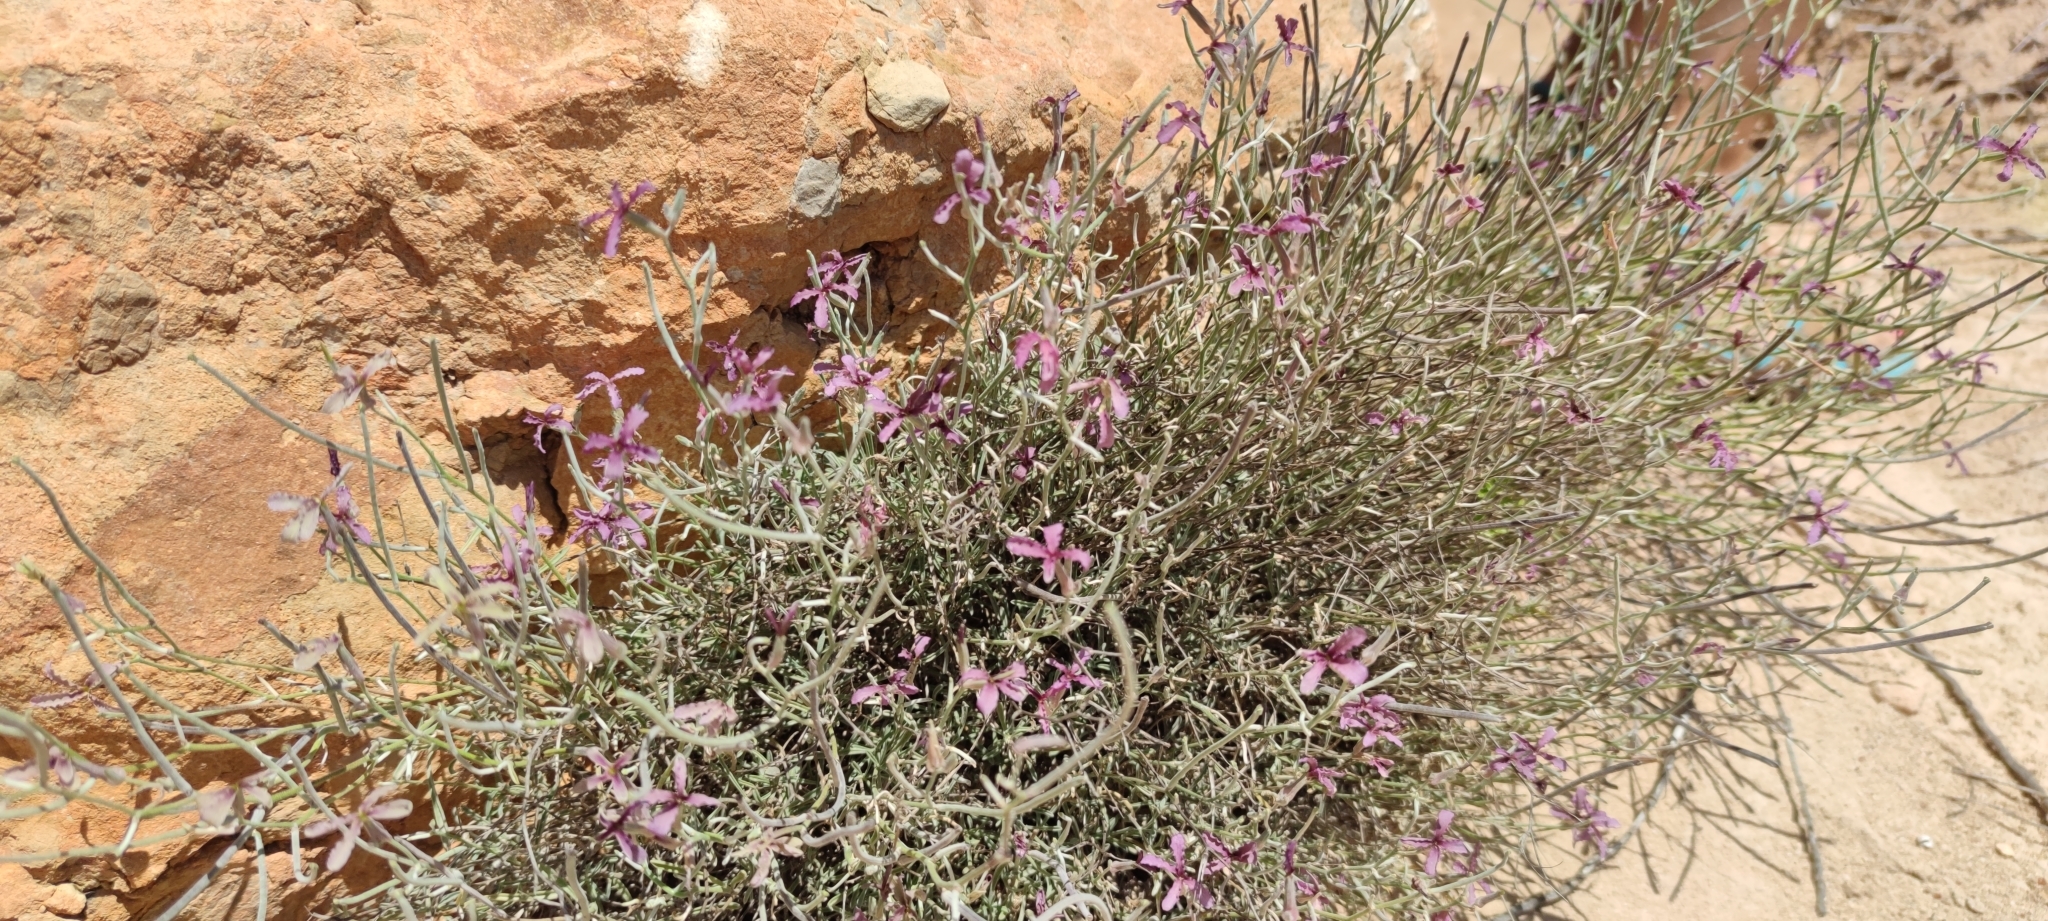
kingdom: Plantae
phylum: Tracheophyta
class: Magnoliopsida
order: Brassicales
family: Brassicaceae
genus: Matthiola
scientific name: Matthiola fruticulosa
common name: Sad stock
